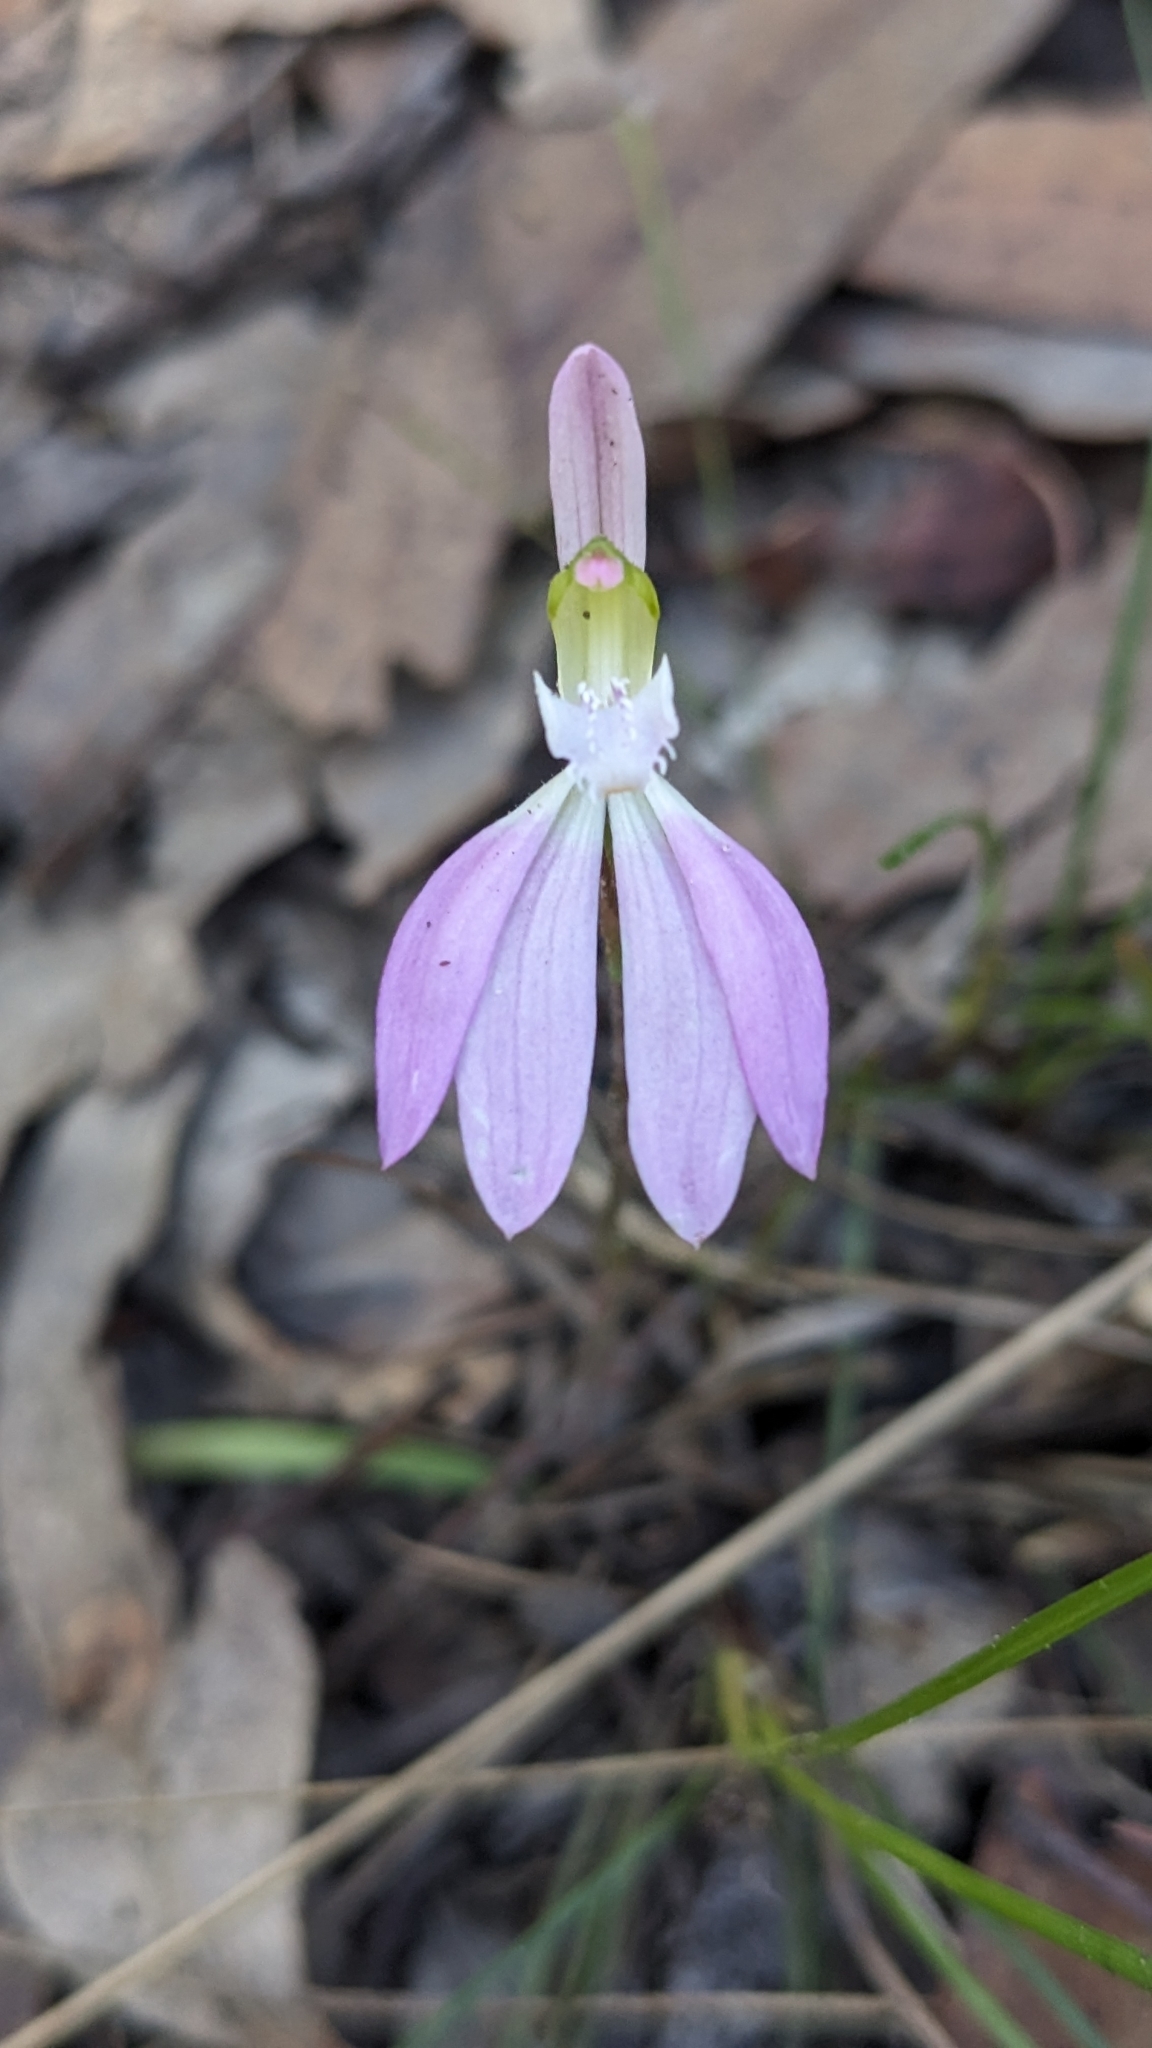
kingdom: Plantae
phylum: Tracheophyta
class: Liliopsida
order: Asparagales
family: Orchidaceae
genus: Caladenia
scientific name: Caladenia catenata
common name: White caladenia
